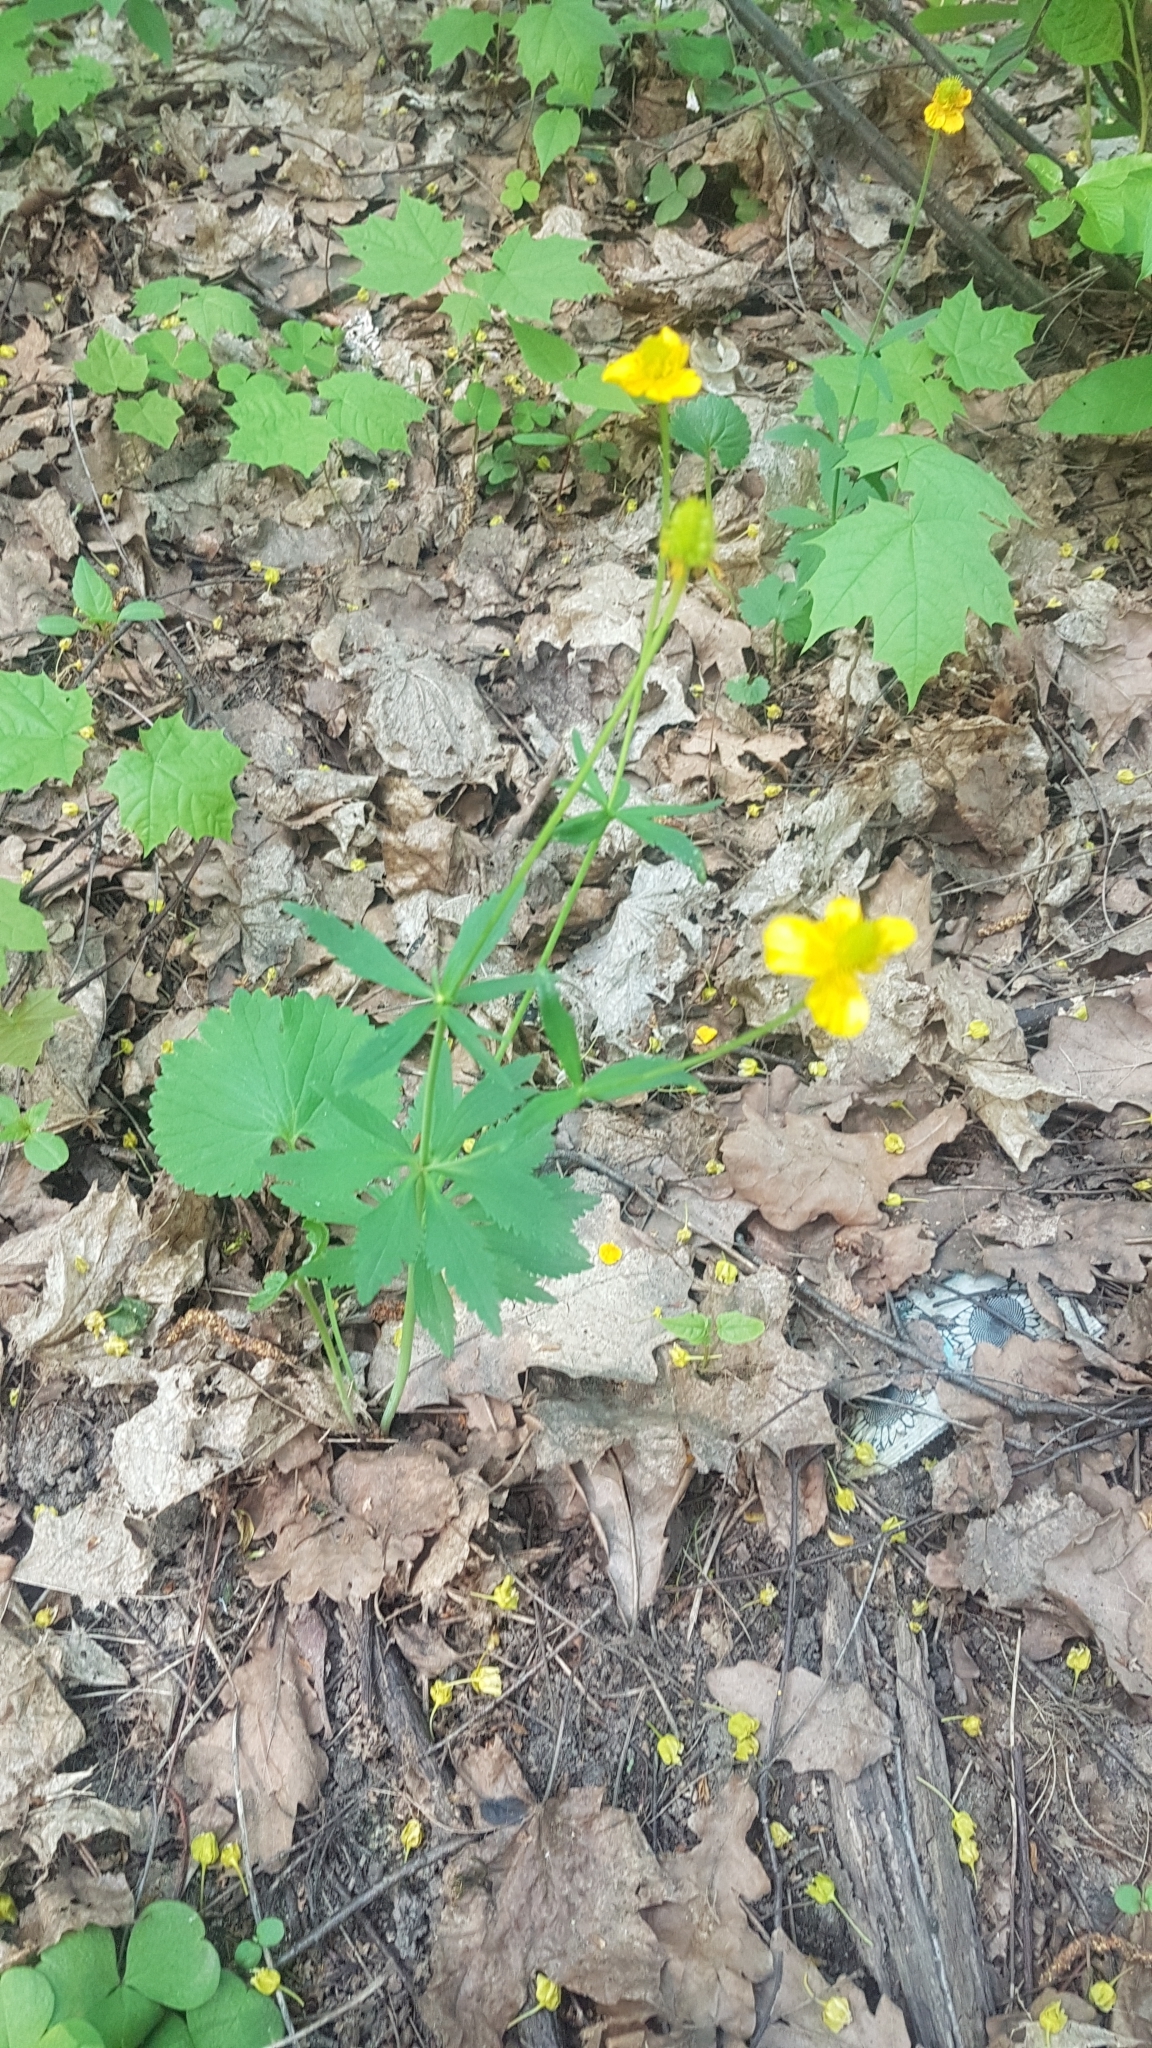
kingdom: Plantae
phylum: Tracheophyta
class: Magnoliopsida
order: Ranunculales
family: Ranunculaceae
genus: Ranunculus
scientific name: Ranunculus cassubicus
